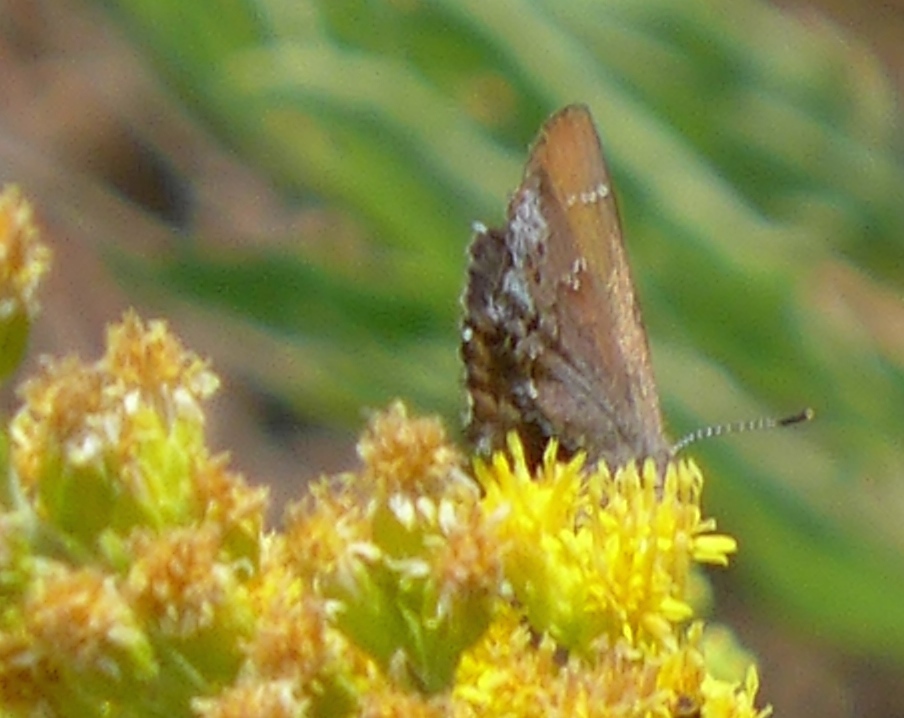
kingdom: Animalia
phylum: Arthropoda
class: Insecta
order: Lepidoptera
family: Lycaenidae
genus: Callophrys
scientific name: Callophrys muiri
